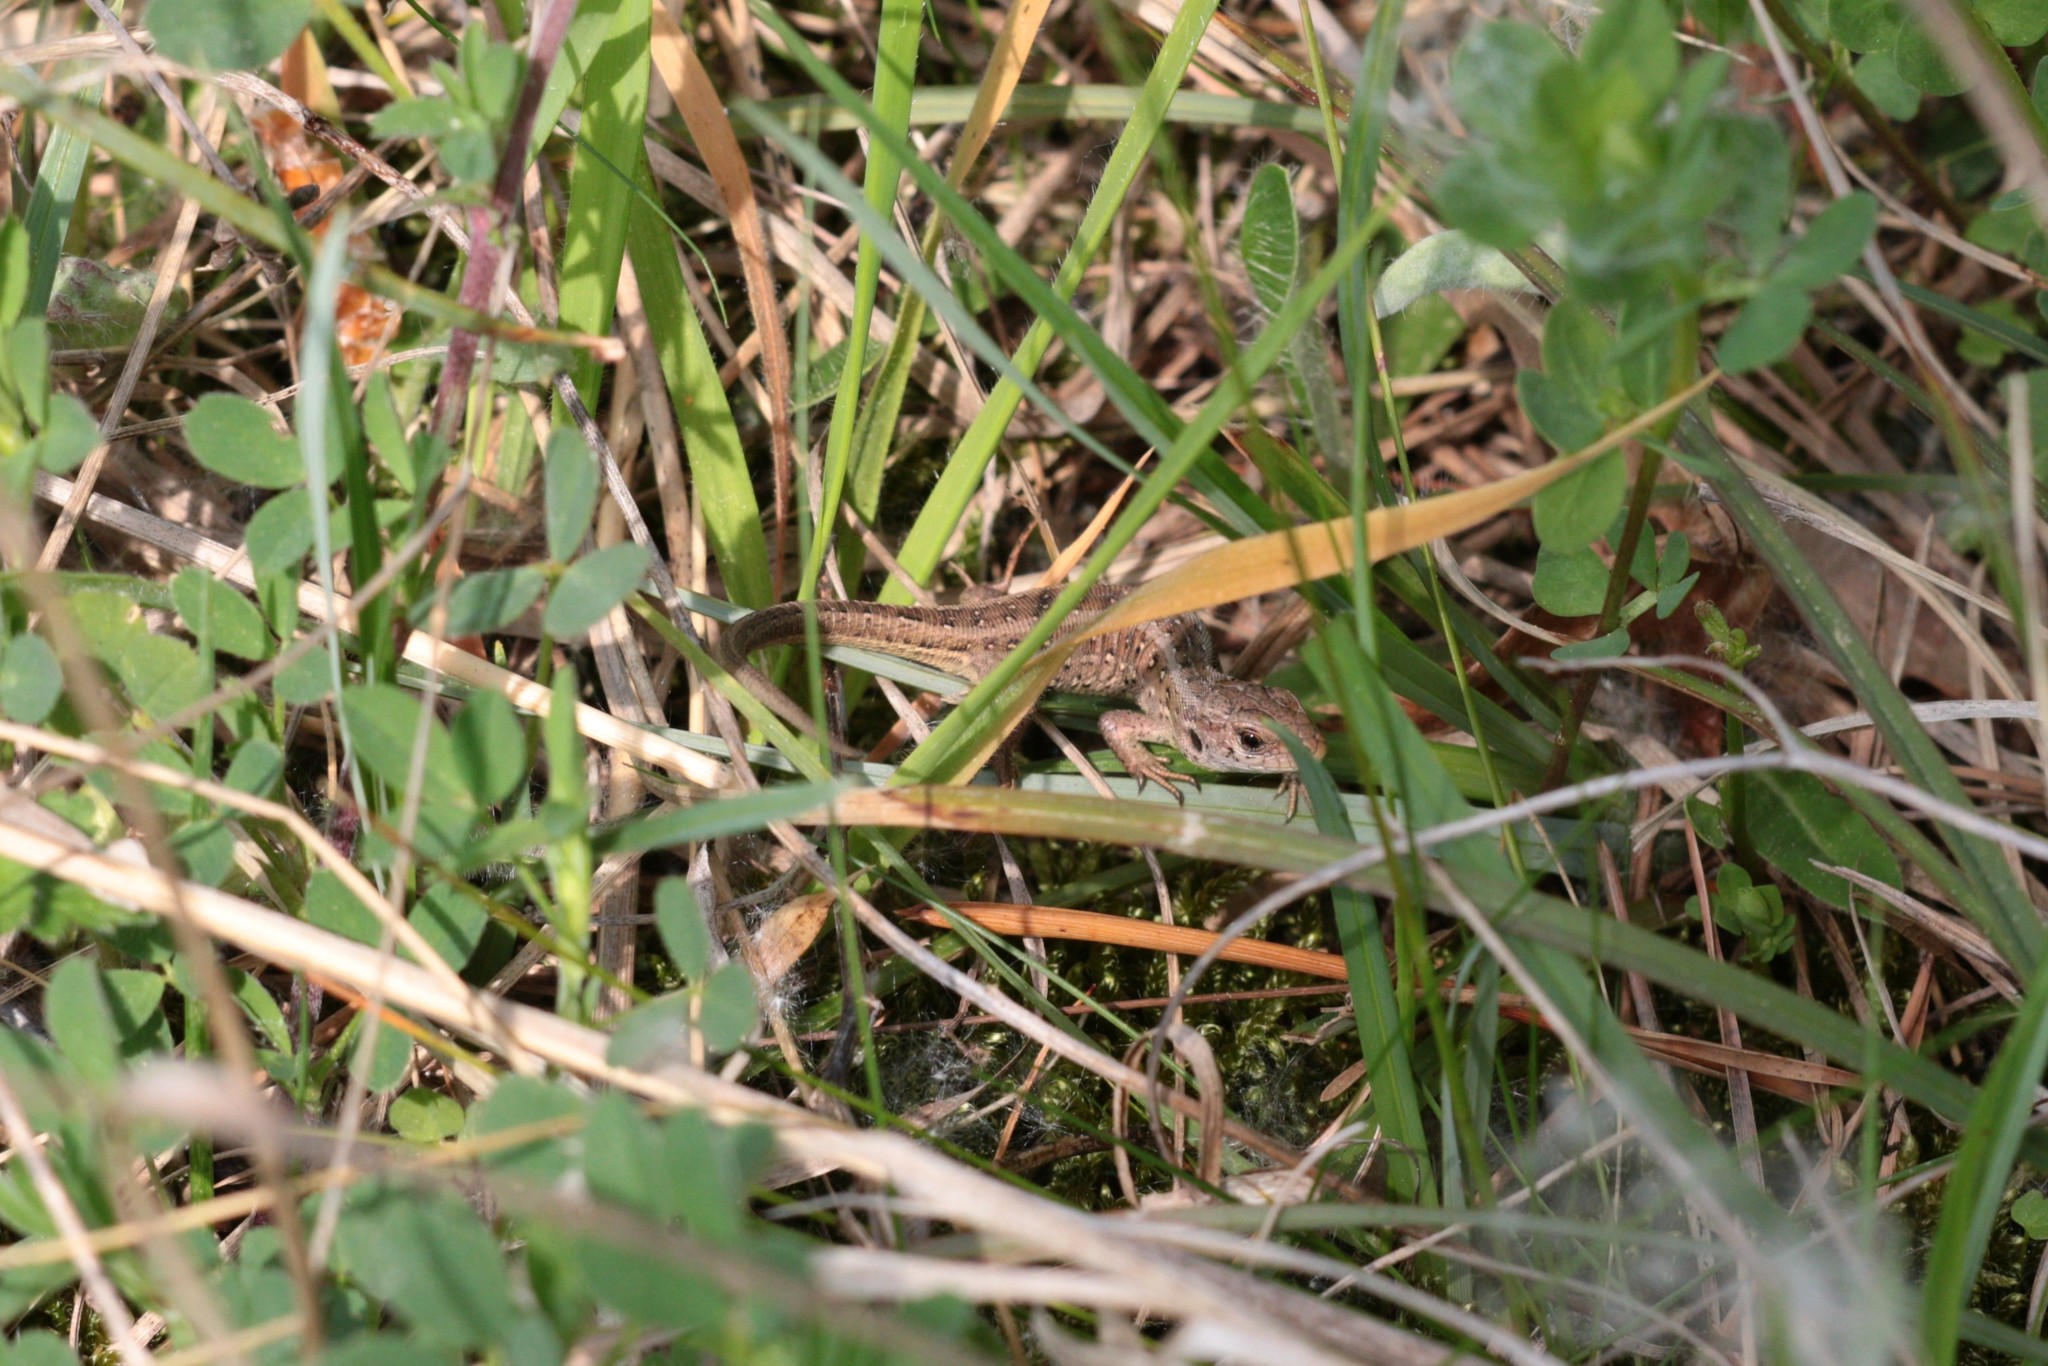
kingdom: Animalia
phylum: Chordata
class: Squamata
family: Lacertidae
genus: Lacerta
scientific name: Lacerta agilis
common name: Sand lizard
